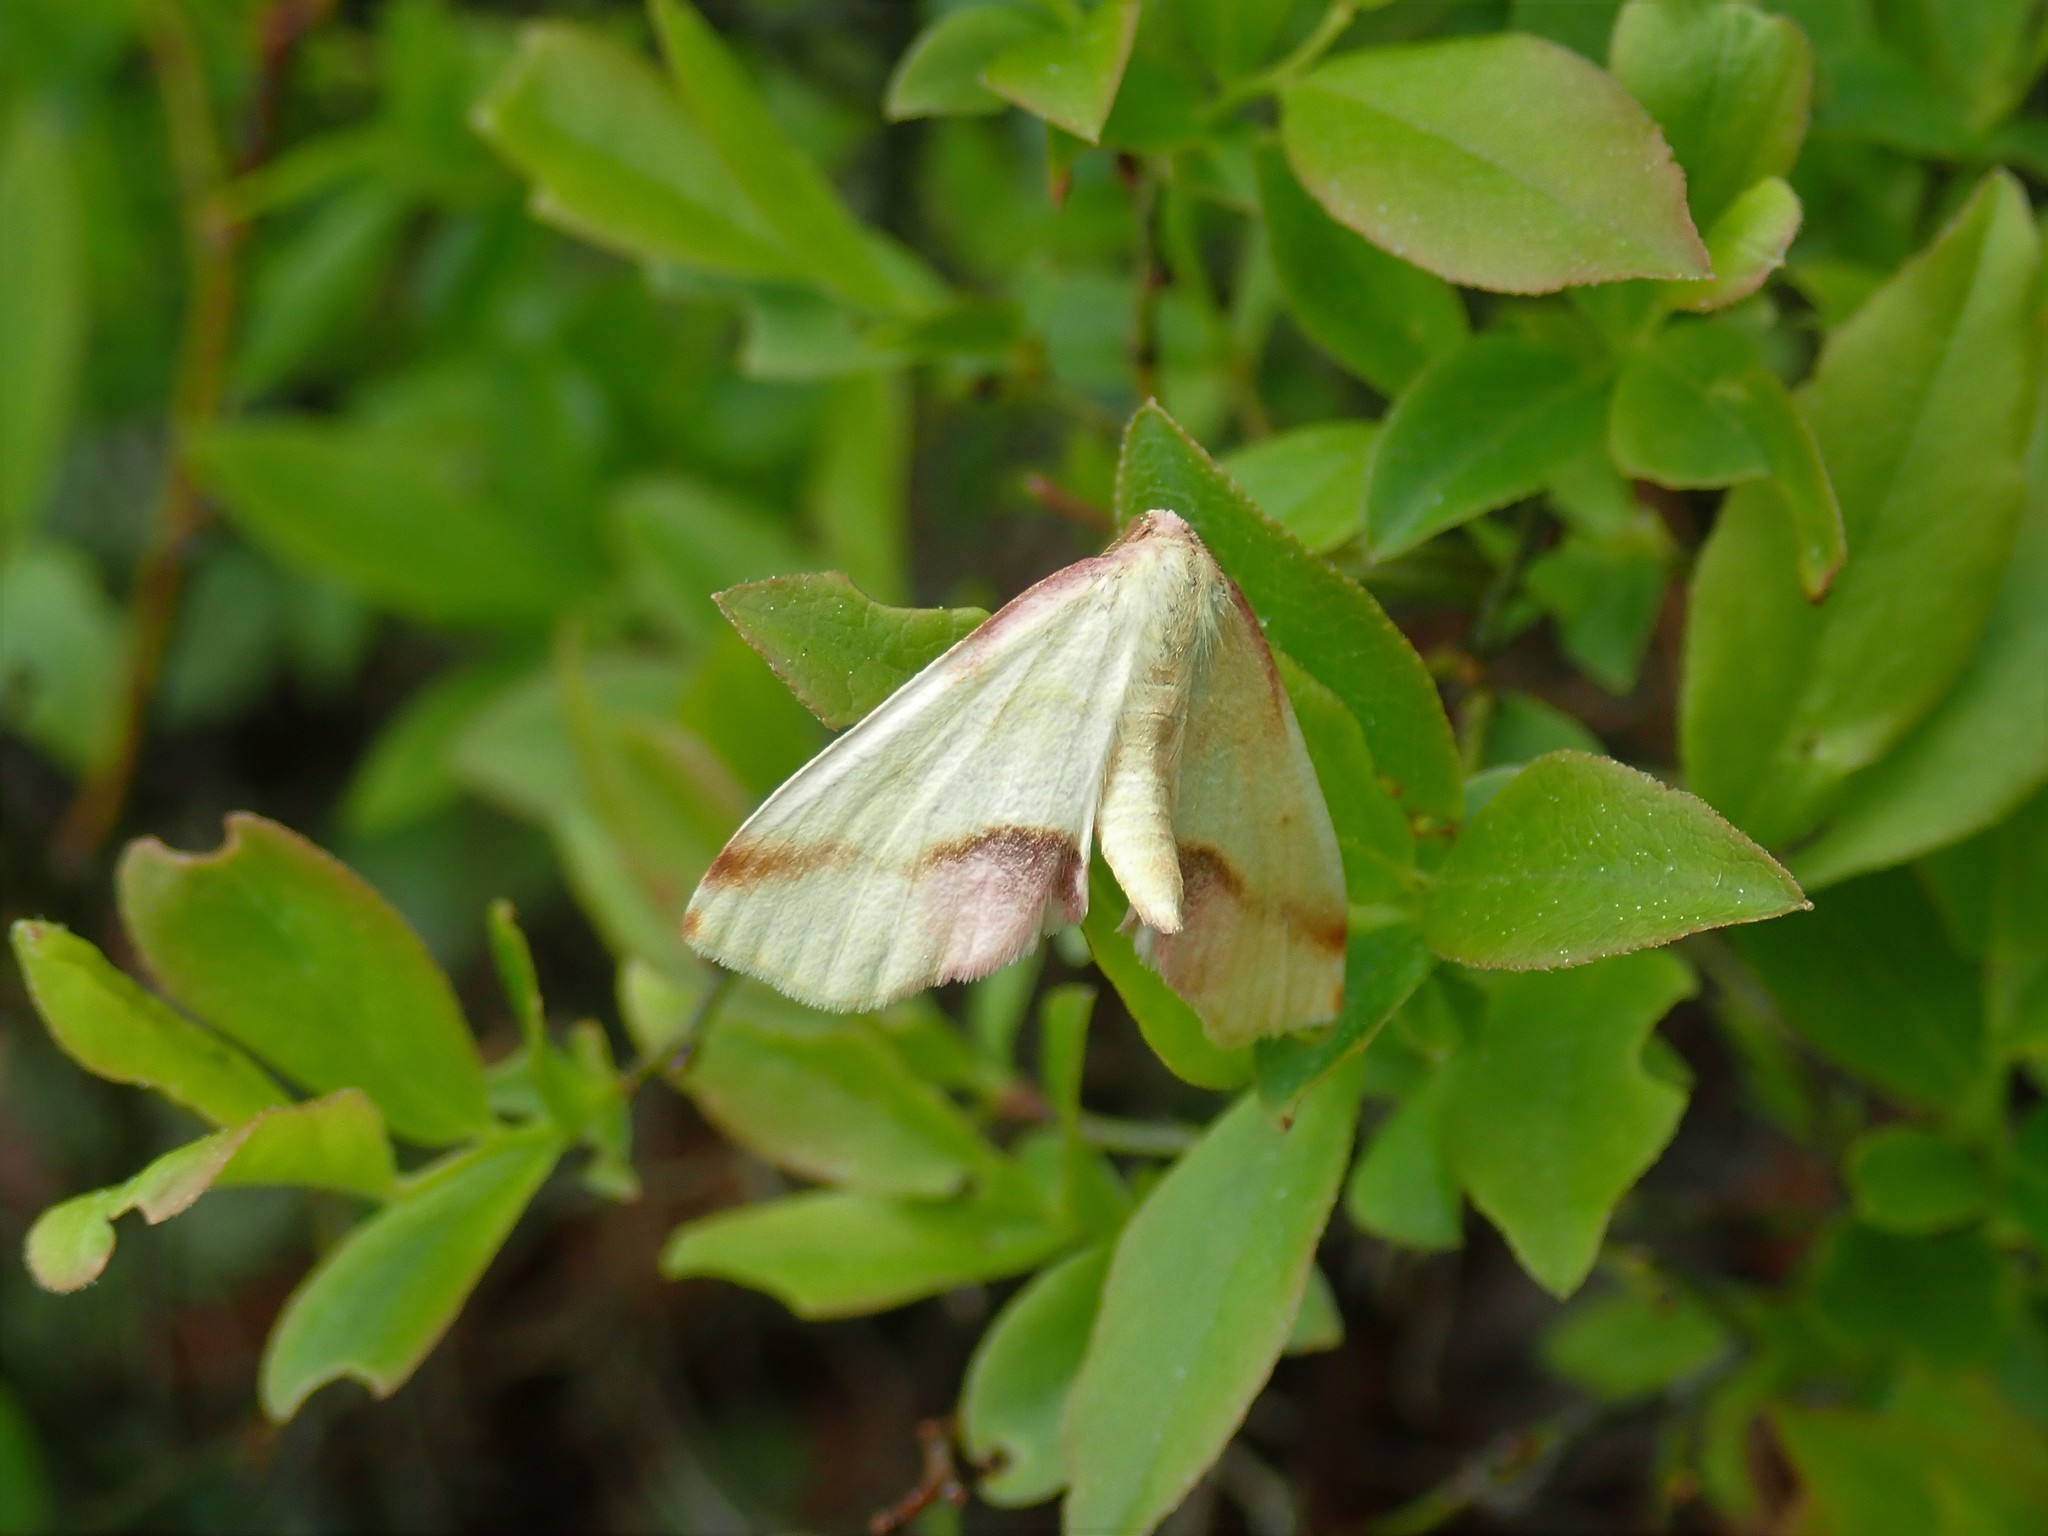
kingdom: Animalia
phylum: Arthropoda
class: Insecta
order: Lepidoptera
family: Geometridae
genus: Plagodis
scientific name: Plagodis serinaria
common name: Lemon plagodis
